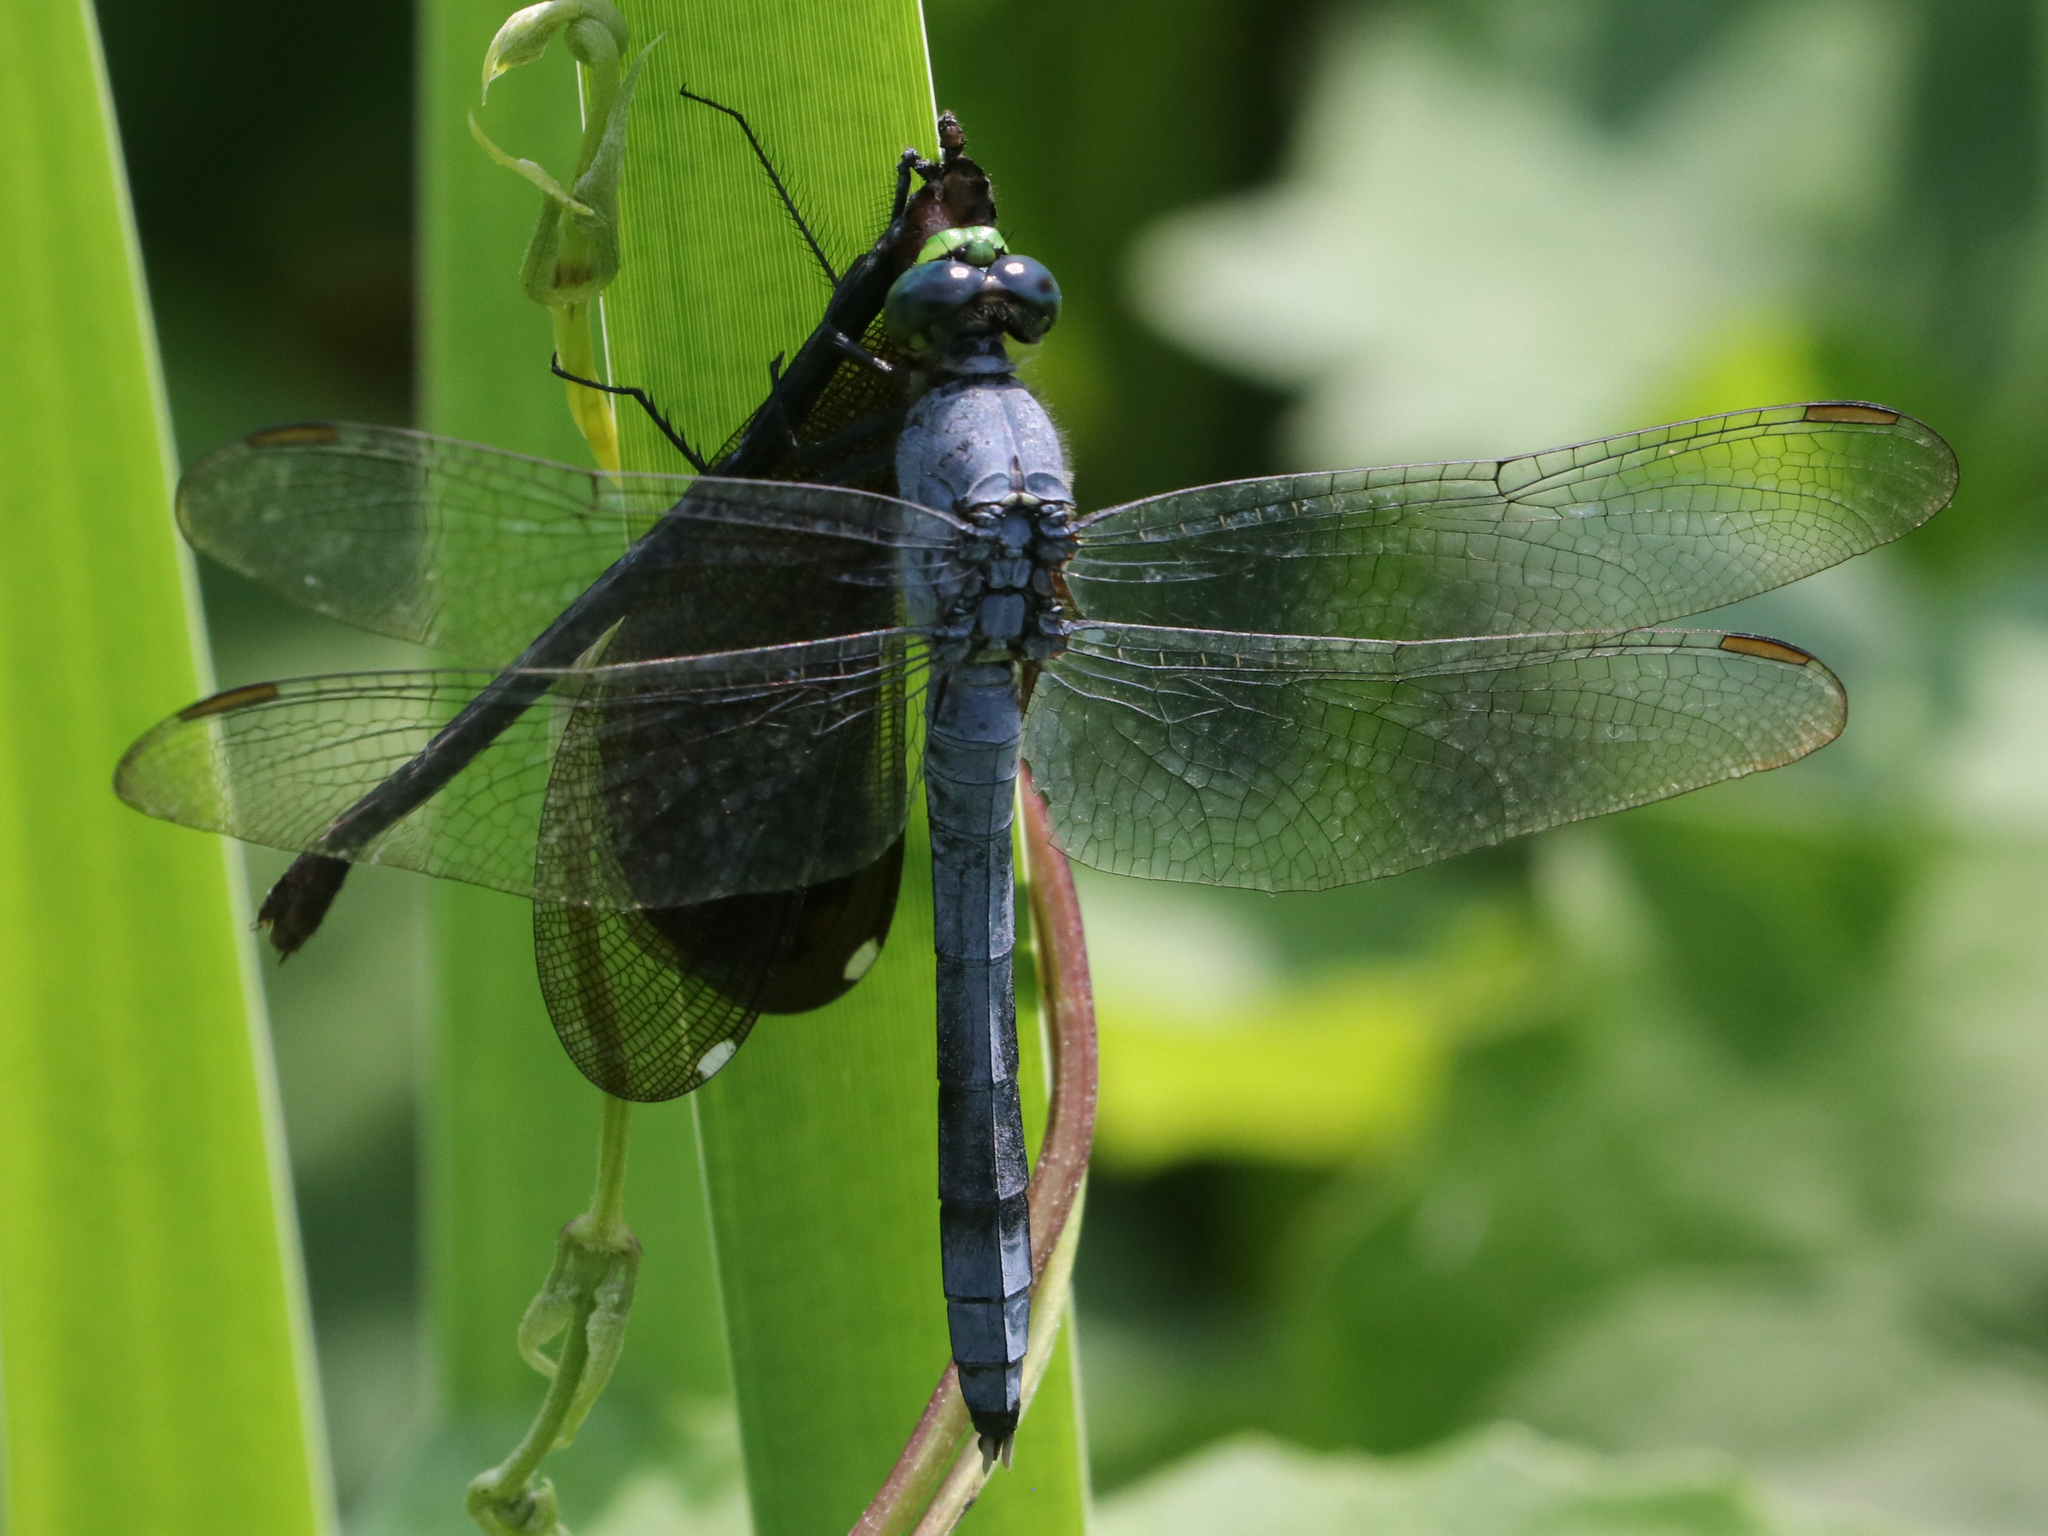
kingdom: Animalia
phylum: Arthropoda
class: Insecta
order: Odonata
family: Libellulidae
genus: Erythemis
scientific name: Erythemis simplicicollis
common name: Eastern pondhawk
